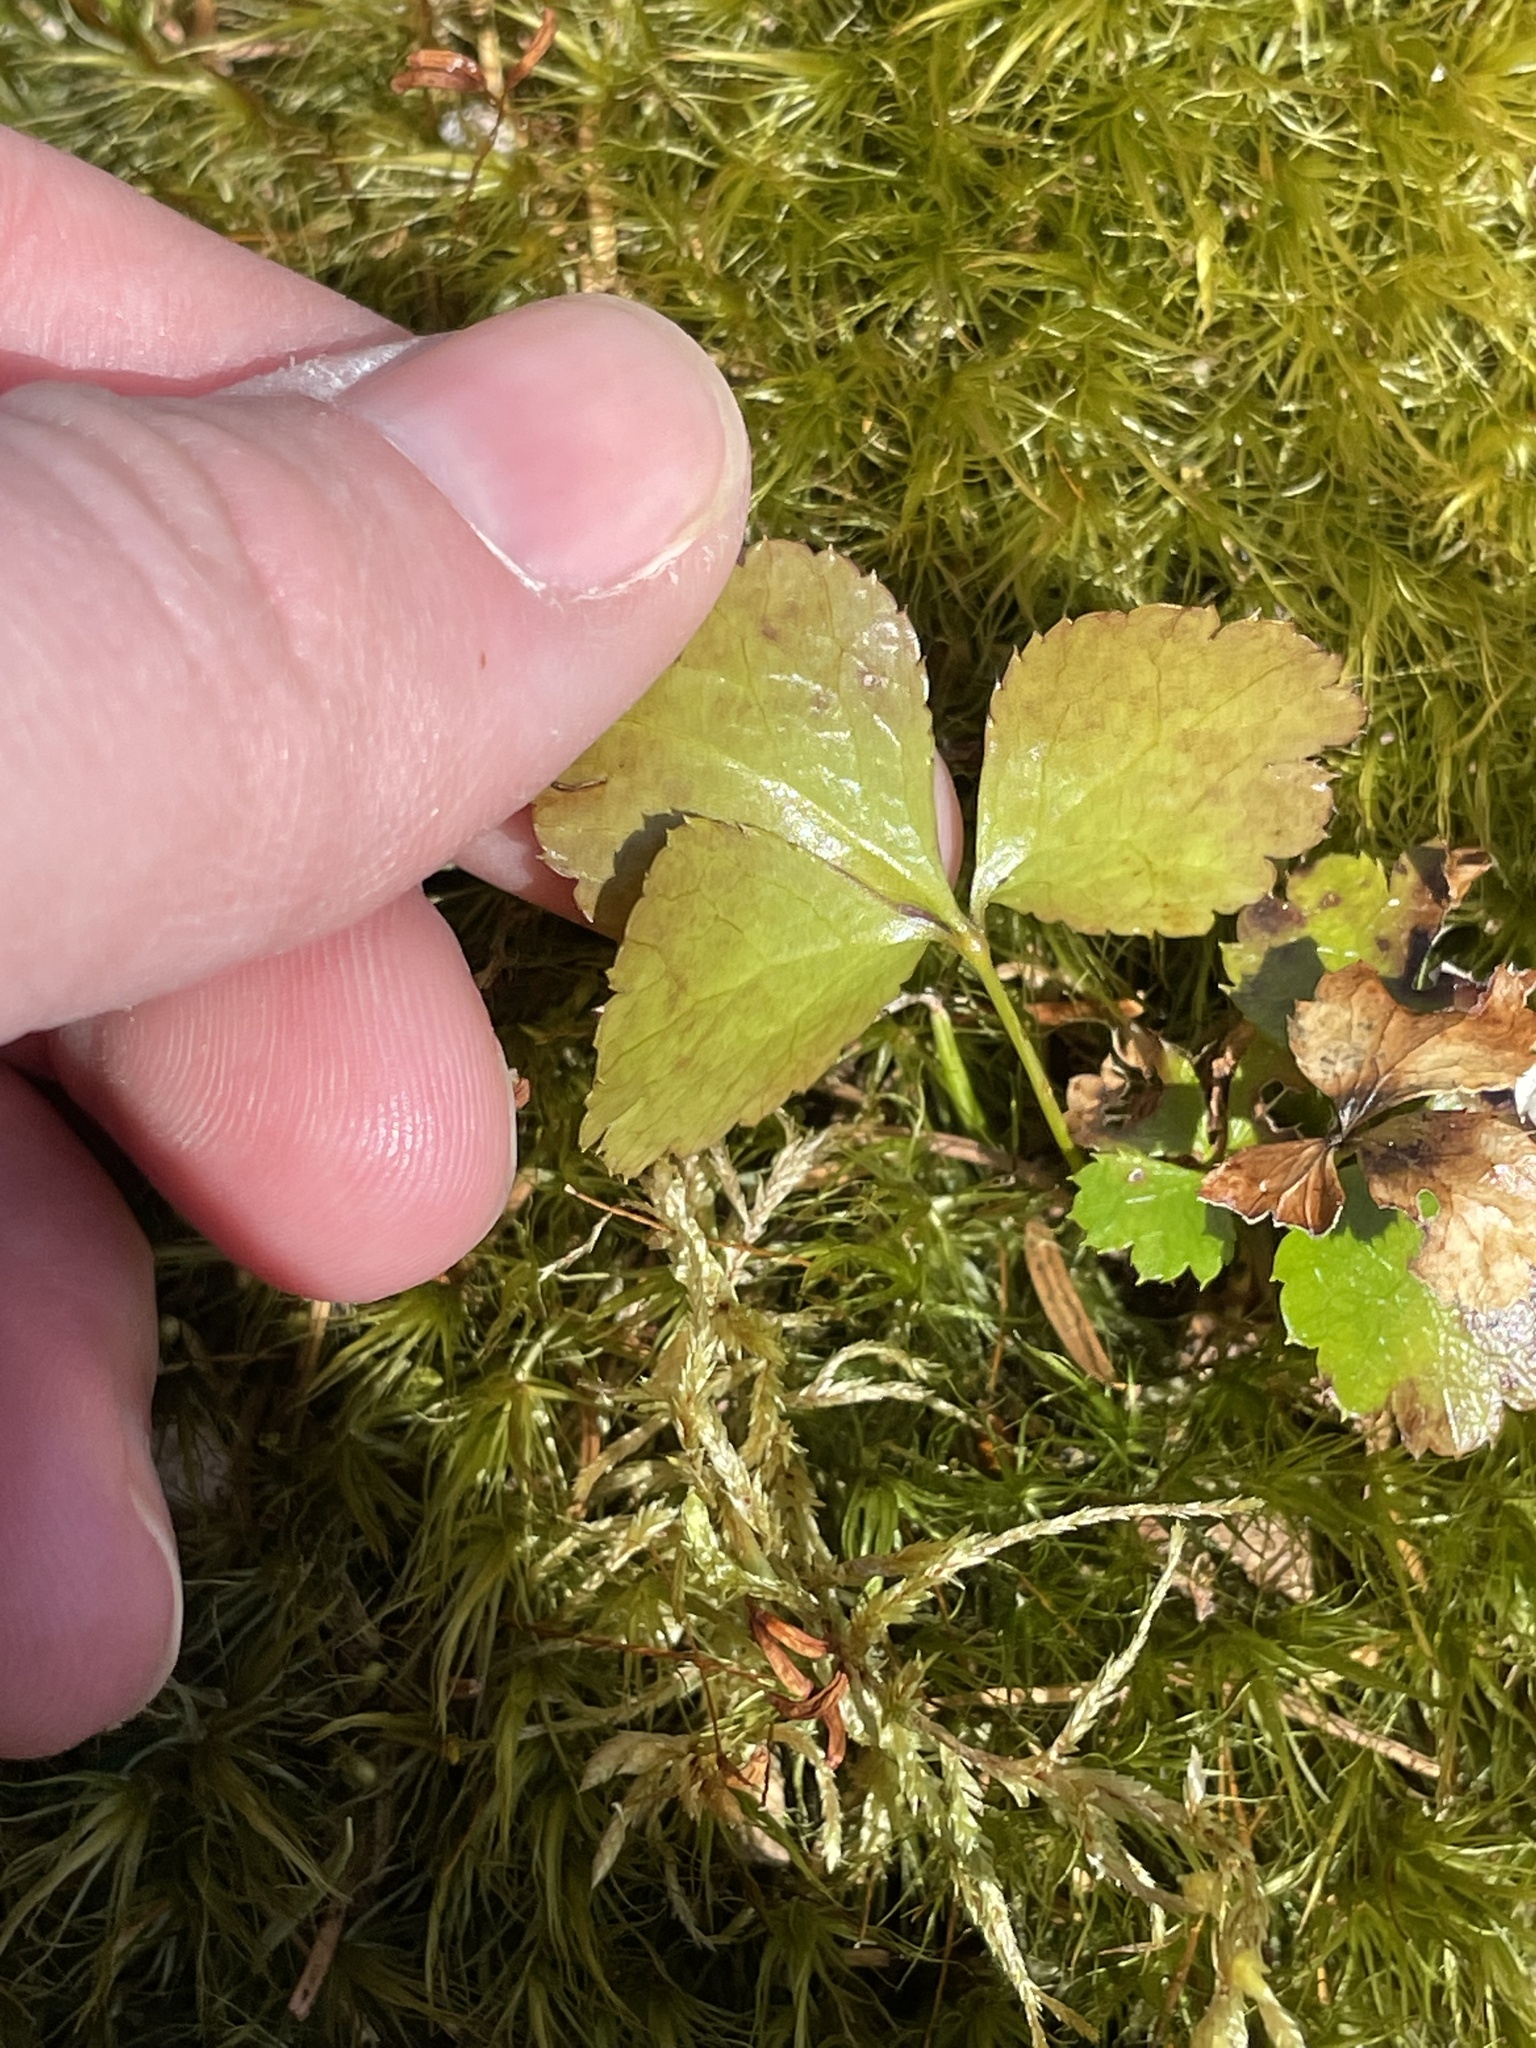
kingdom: Plantae
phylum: Tracheophyta
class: Magnoliopsida
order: Ranunculales
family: Ranunculaceae
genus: Coptis
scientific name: Coptis trifolia
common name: Canker-root
